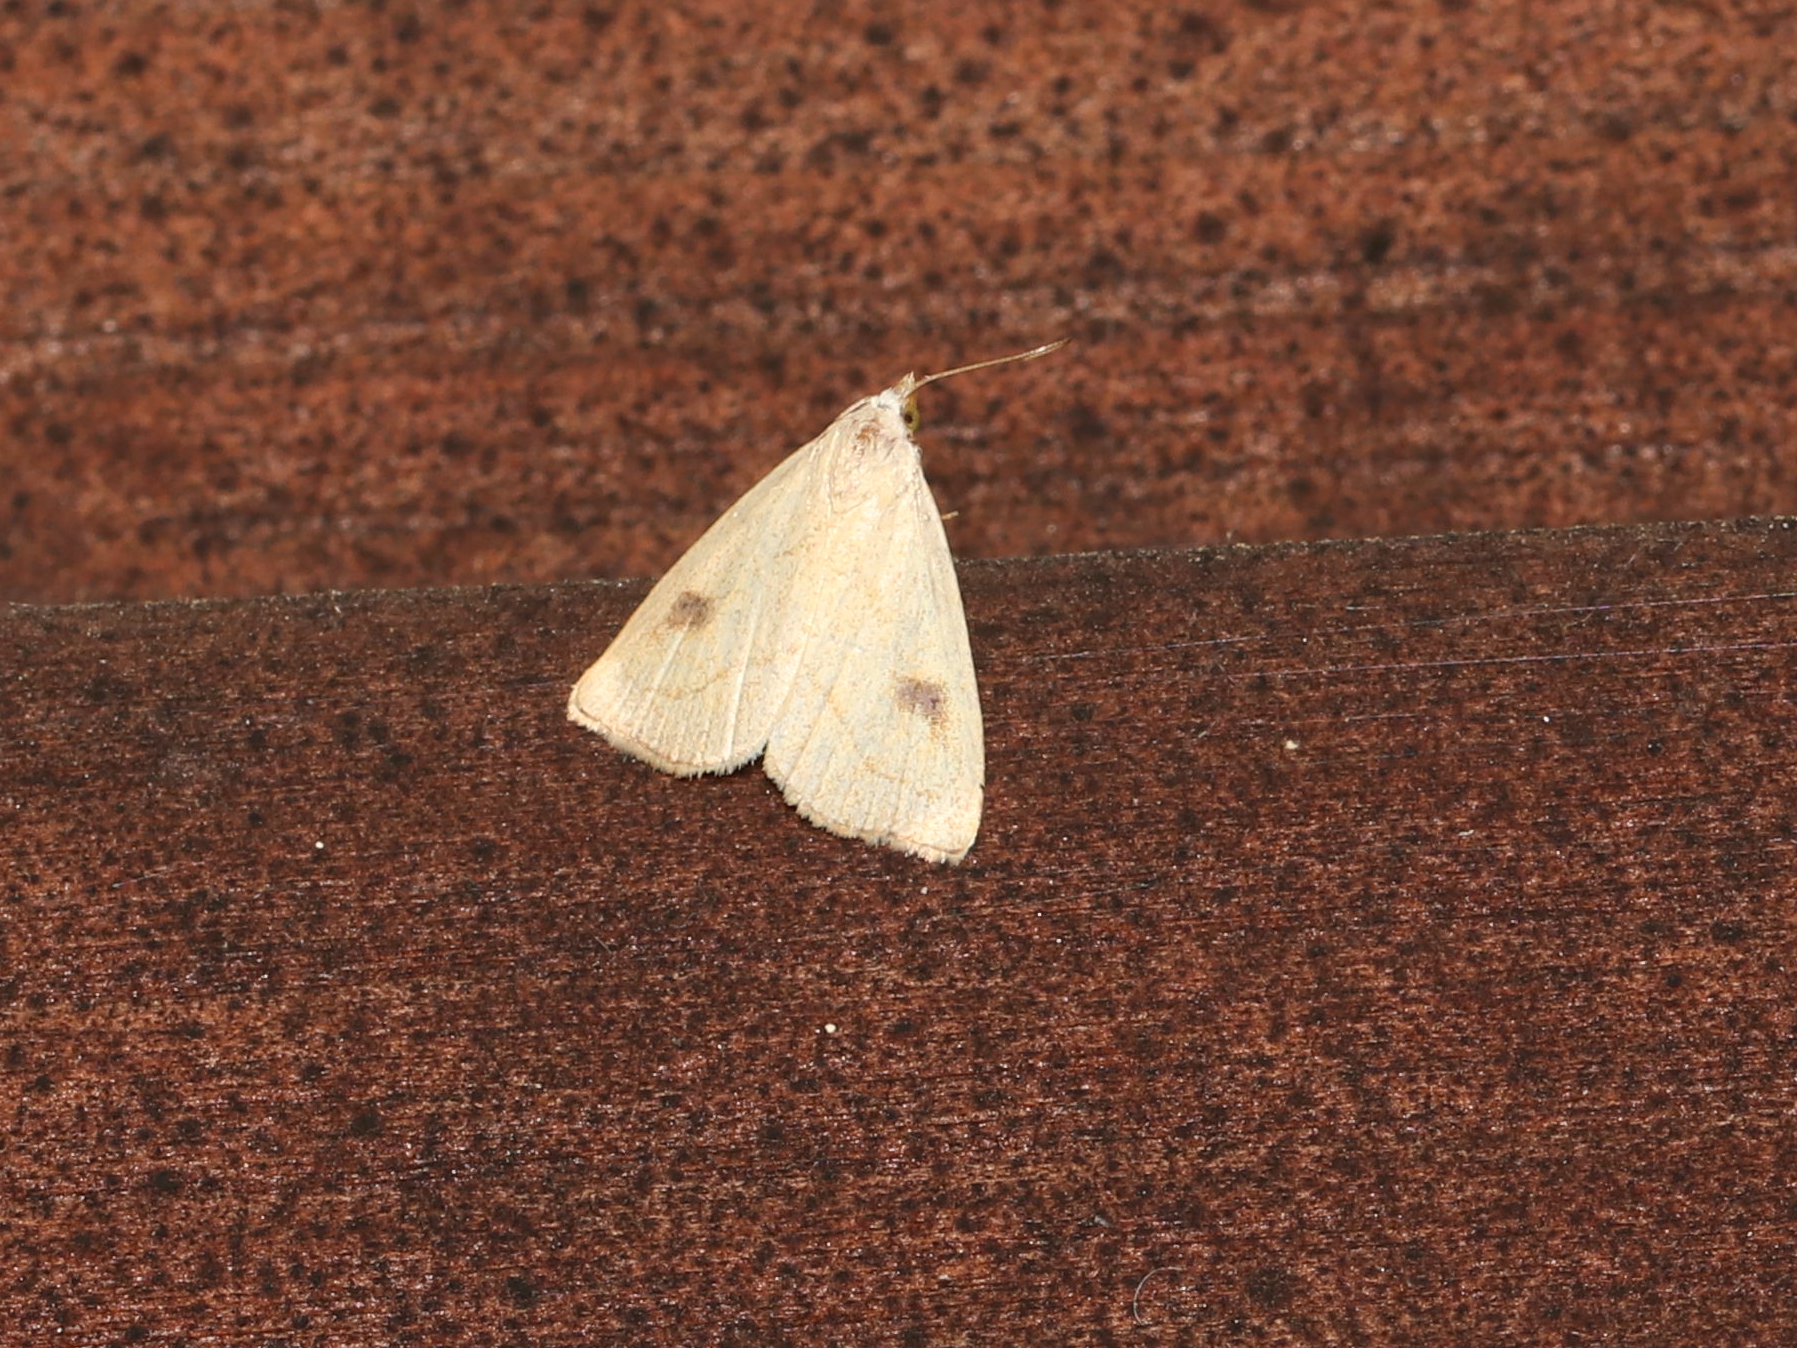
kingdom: Animalia
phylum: Arthropoda
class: Insecta
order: Lepidoptera
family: Erebidae
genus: Rivula
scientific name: Rivula propinqualis
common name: Spotted grass moth
